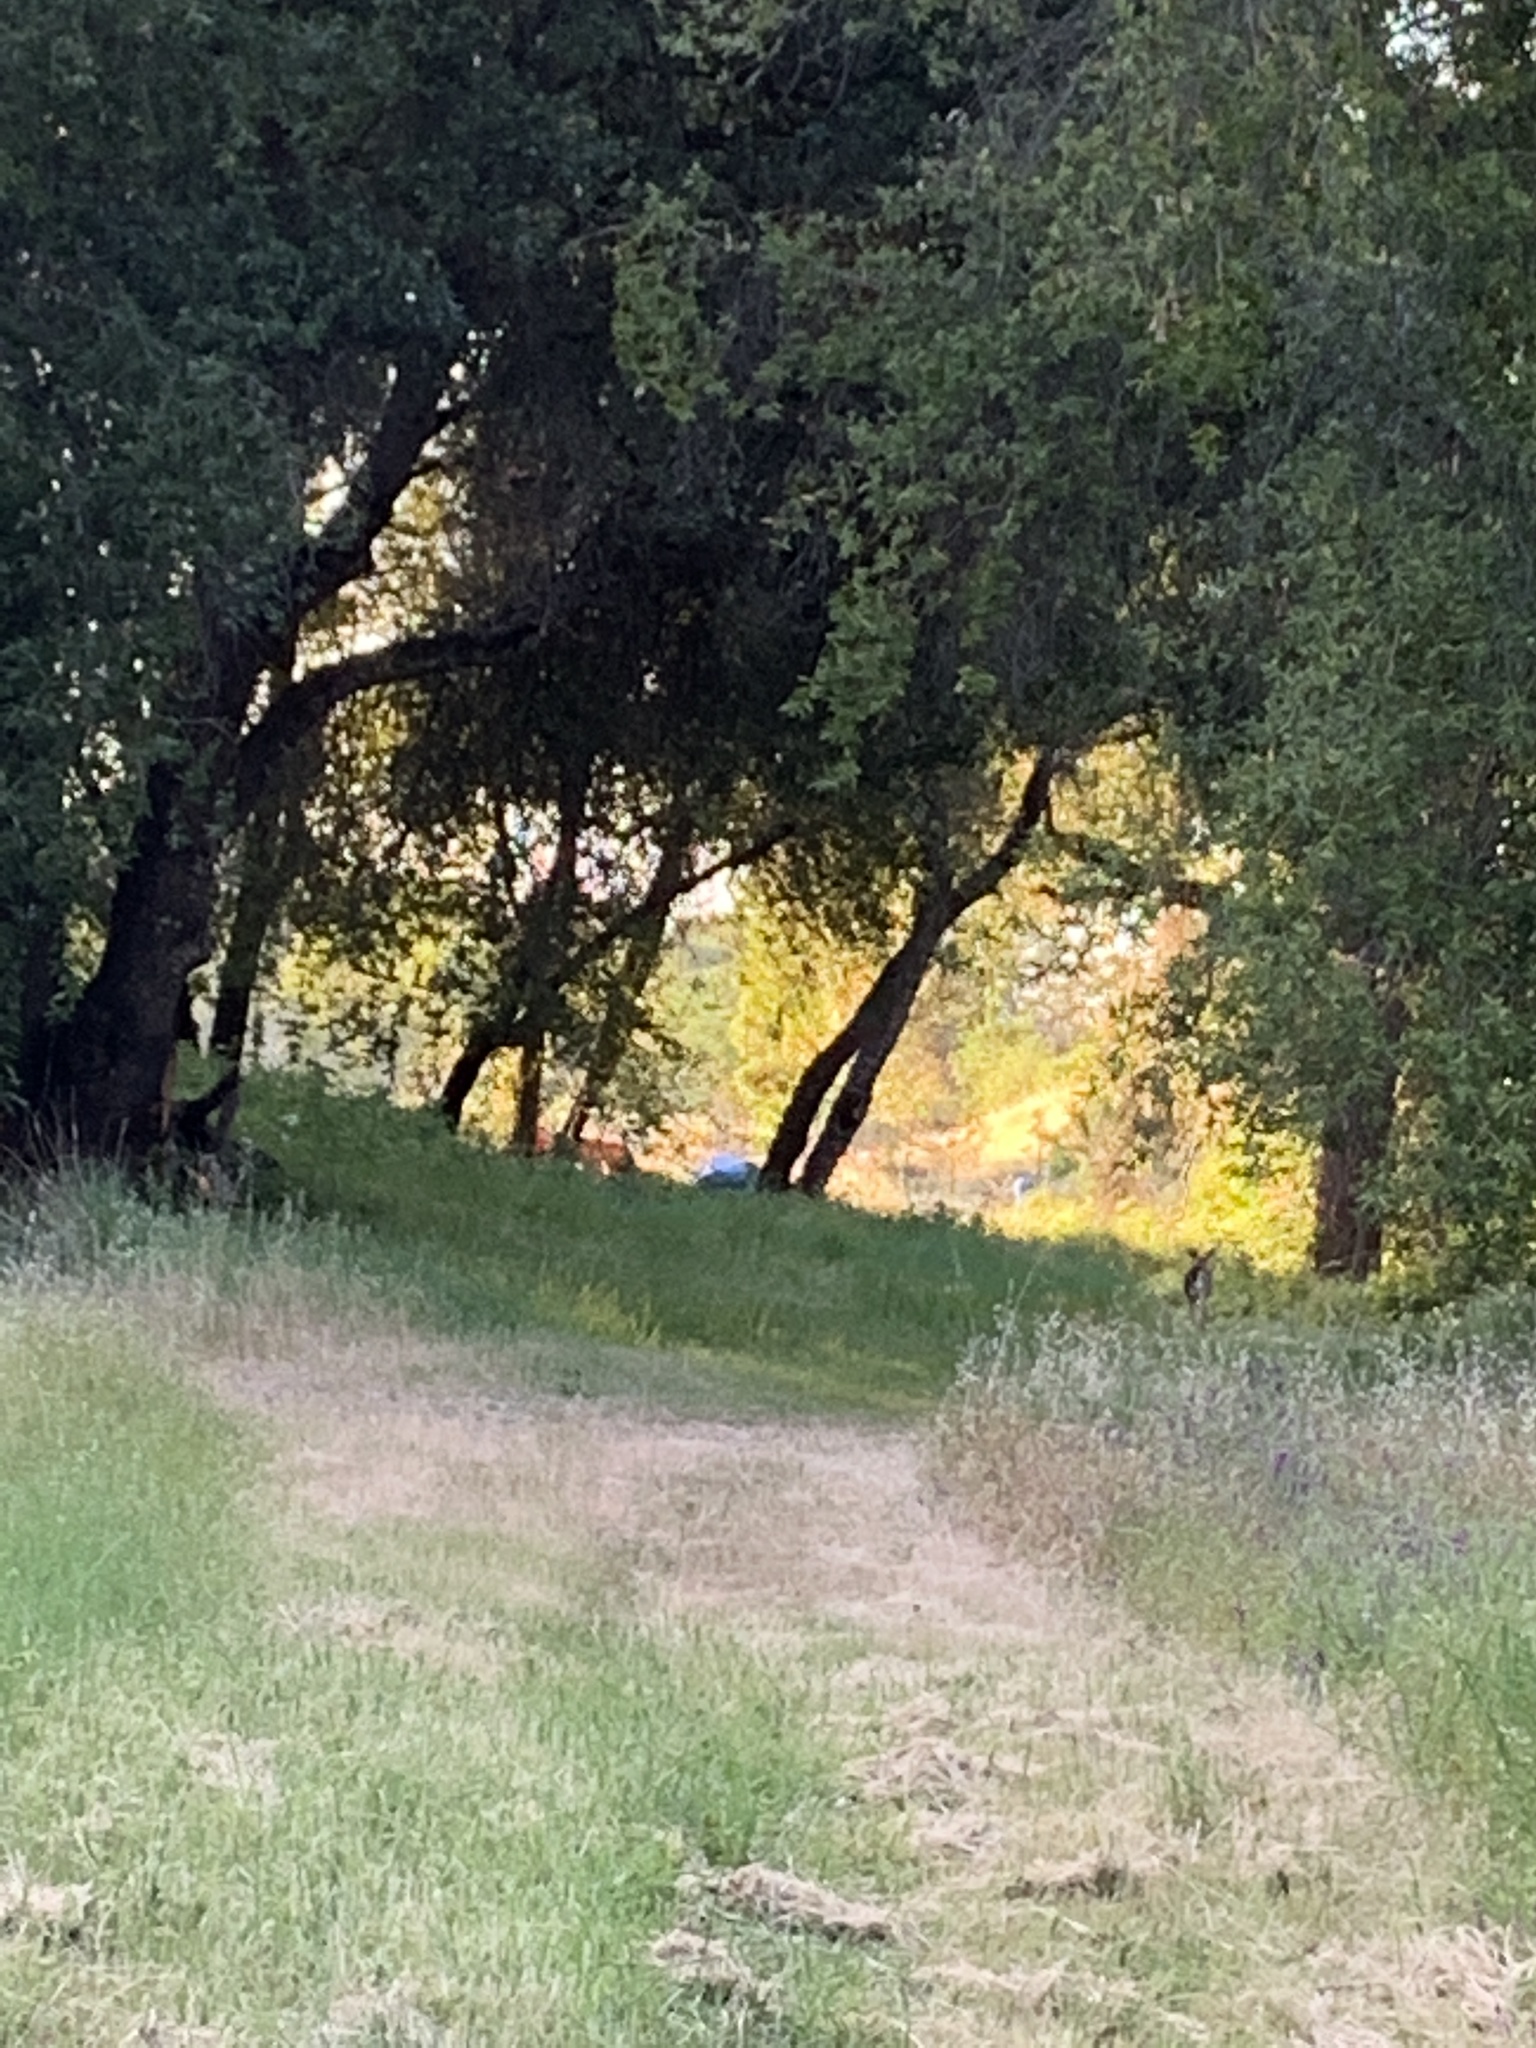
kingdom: Animalia
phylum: Chordata
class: Mammalia
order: Artiodactyla
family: Cervidae
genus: Odocoileus
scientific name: Odocoileus hemionus
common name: Mule deer
